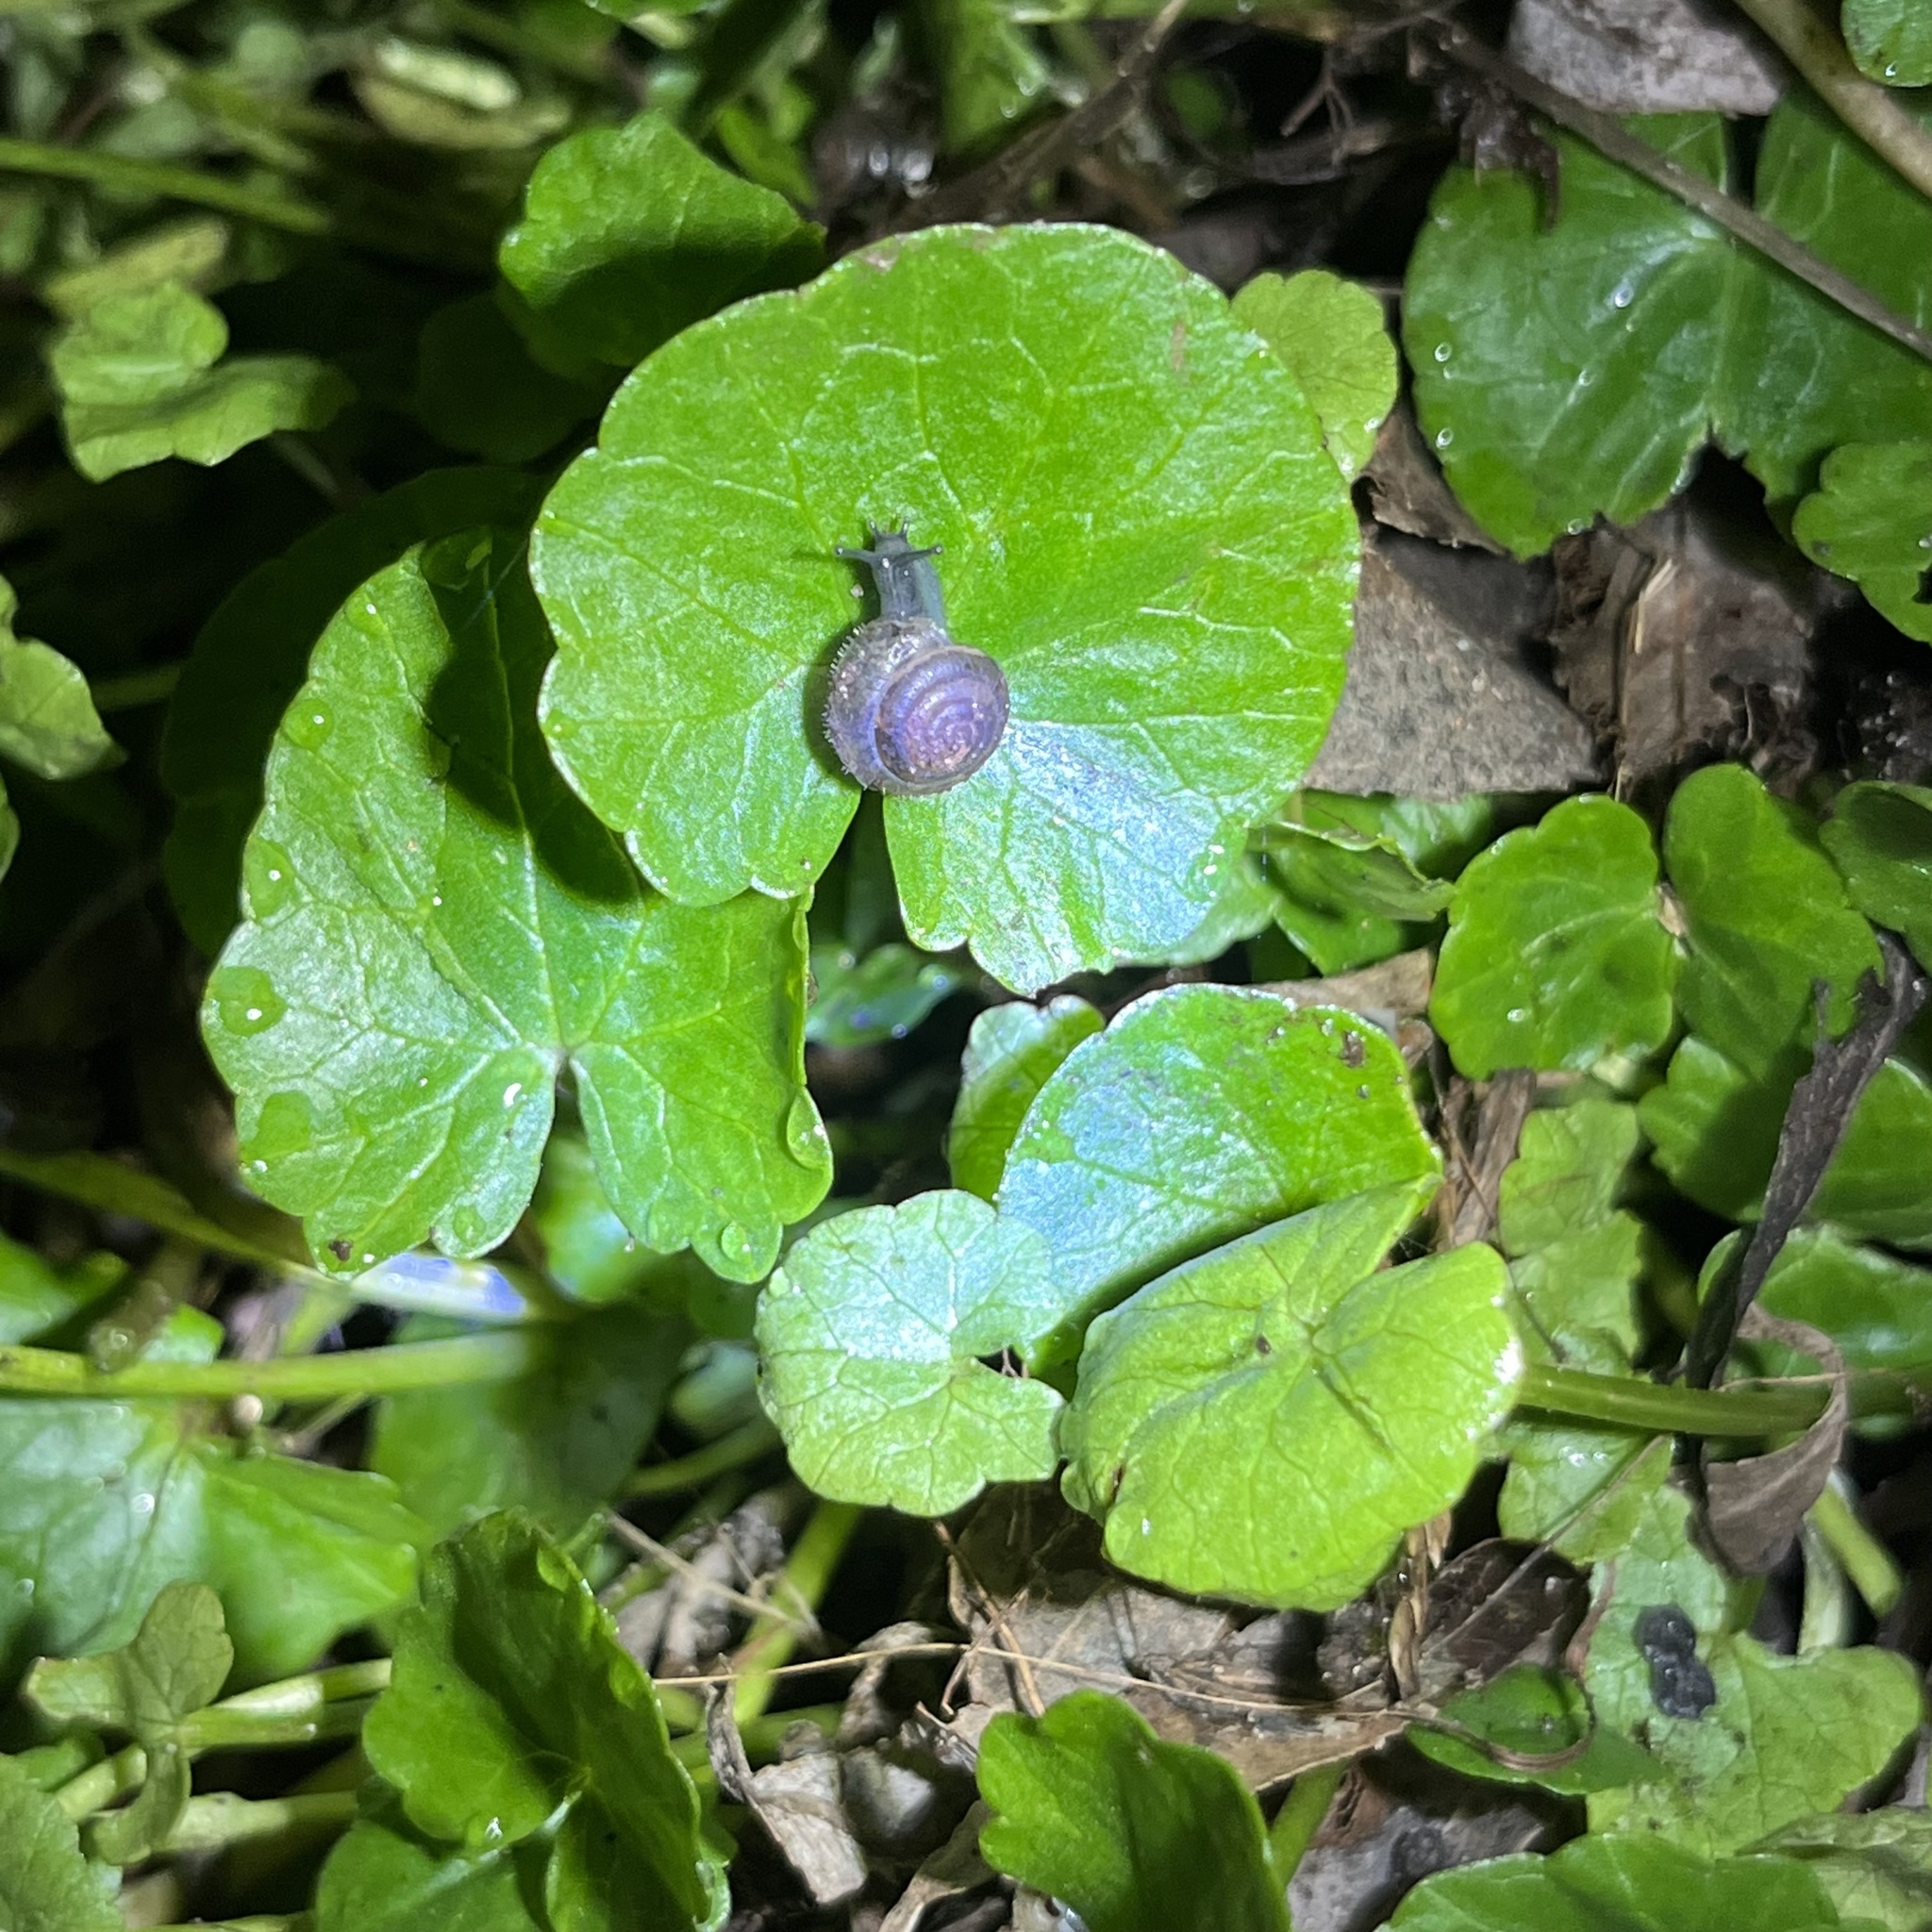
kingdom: Plantae
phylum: Tracheophyta
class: Magnoliopsida
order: Ranunculales
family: Ranunculaceae
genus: Ficaria
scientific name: Ficaria verna
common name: Lesser celandine
